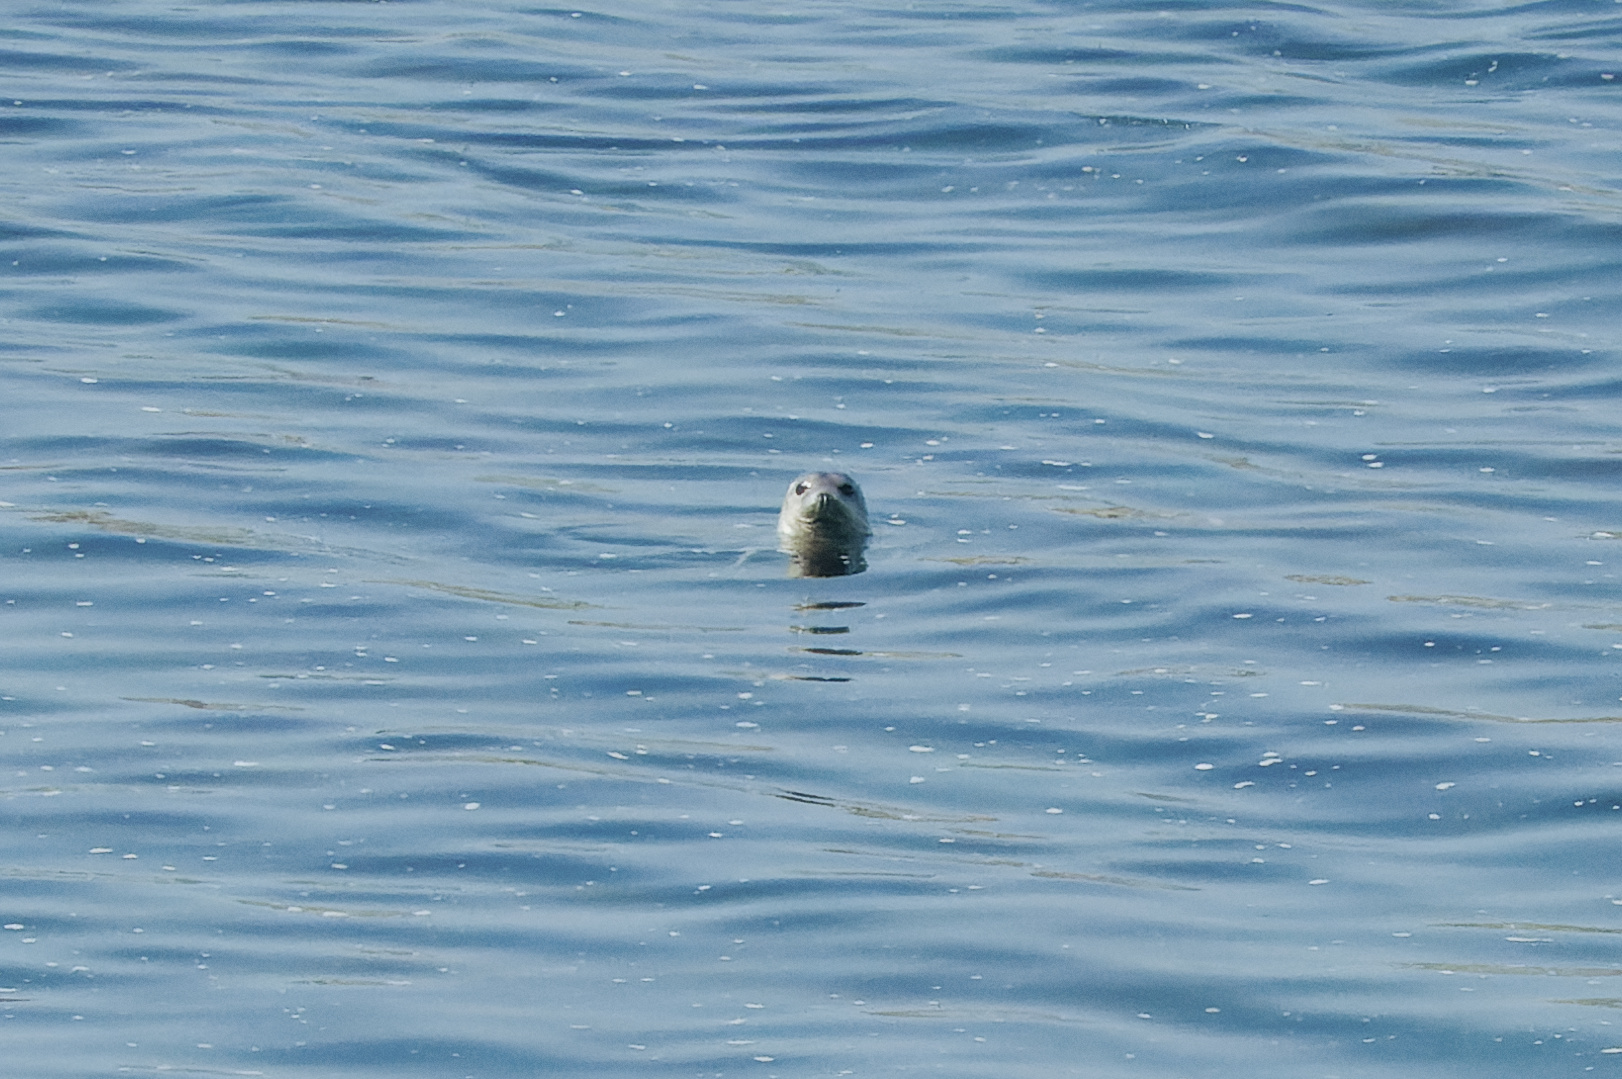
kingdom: Animalia
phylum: Chordata
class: Mammalia
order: Carnivora
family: Phocidae
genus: Halichoerus
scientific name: Halichoerus grypus
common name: Grey seal
